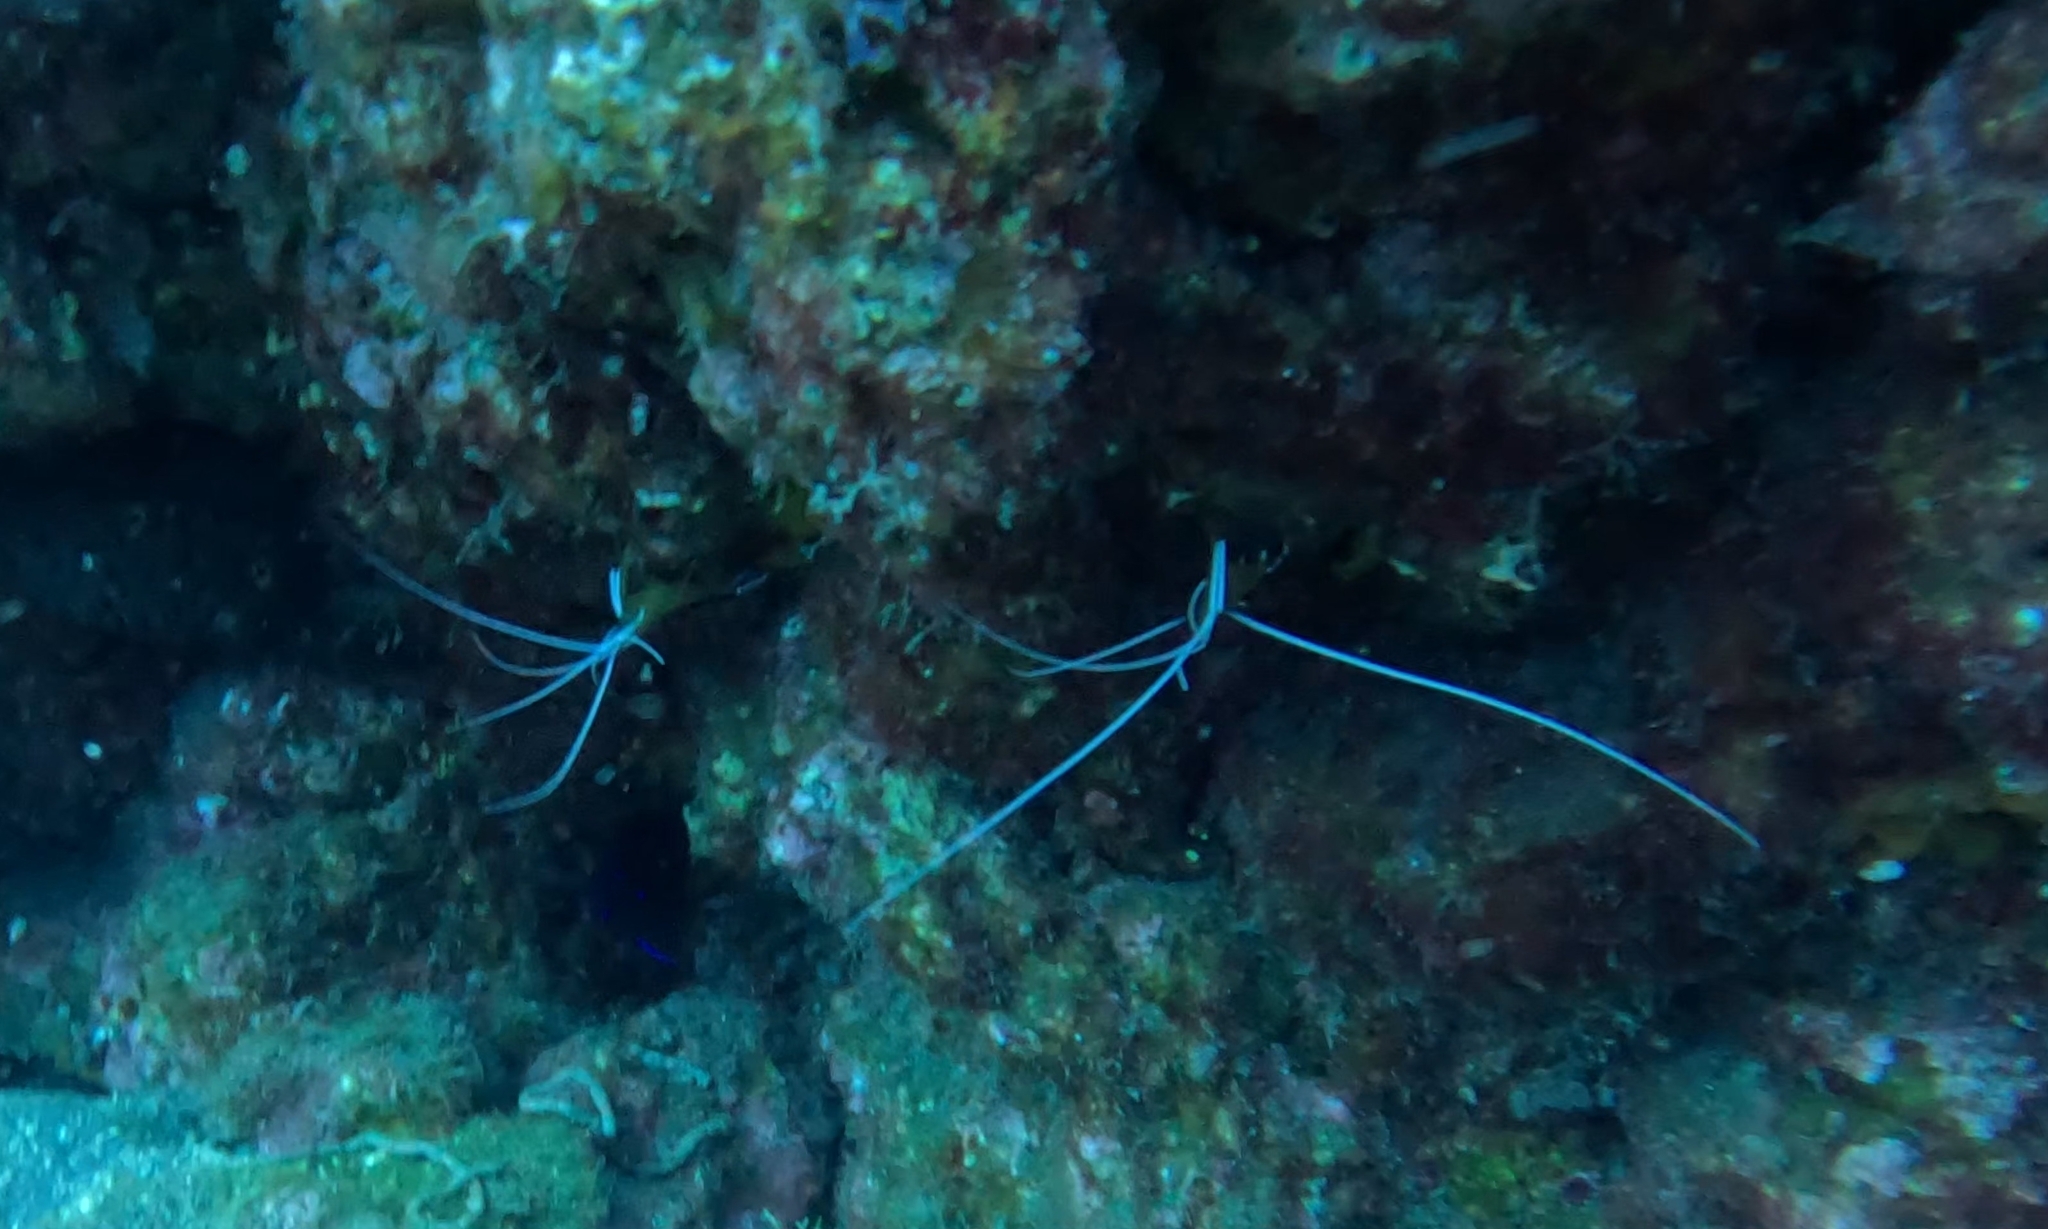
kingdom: Animalia
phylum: Arthropoda
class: Malacostraca
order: Decapoda
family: Lysmatidae
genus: Lysmata
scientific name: Lysmata grabhami
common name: Scarlet-striped cleaning shrimp
